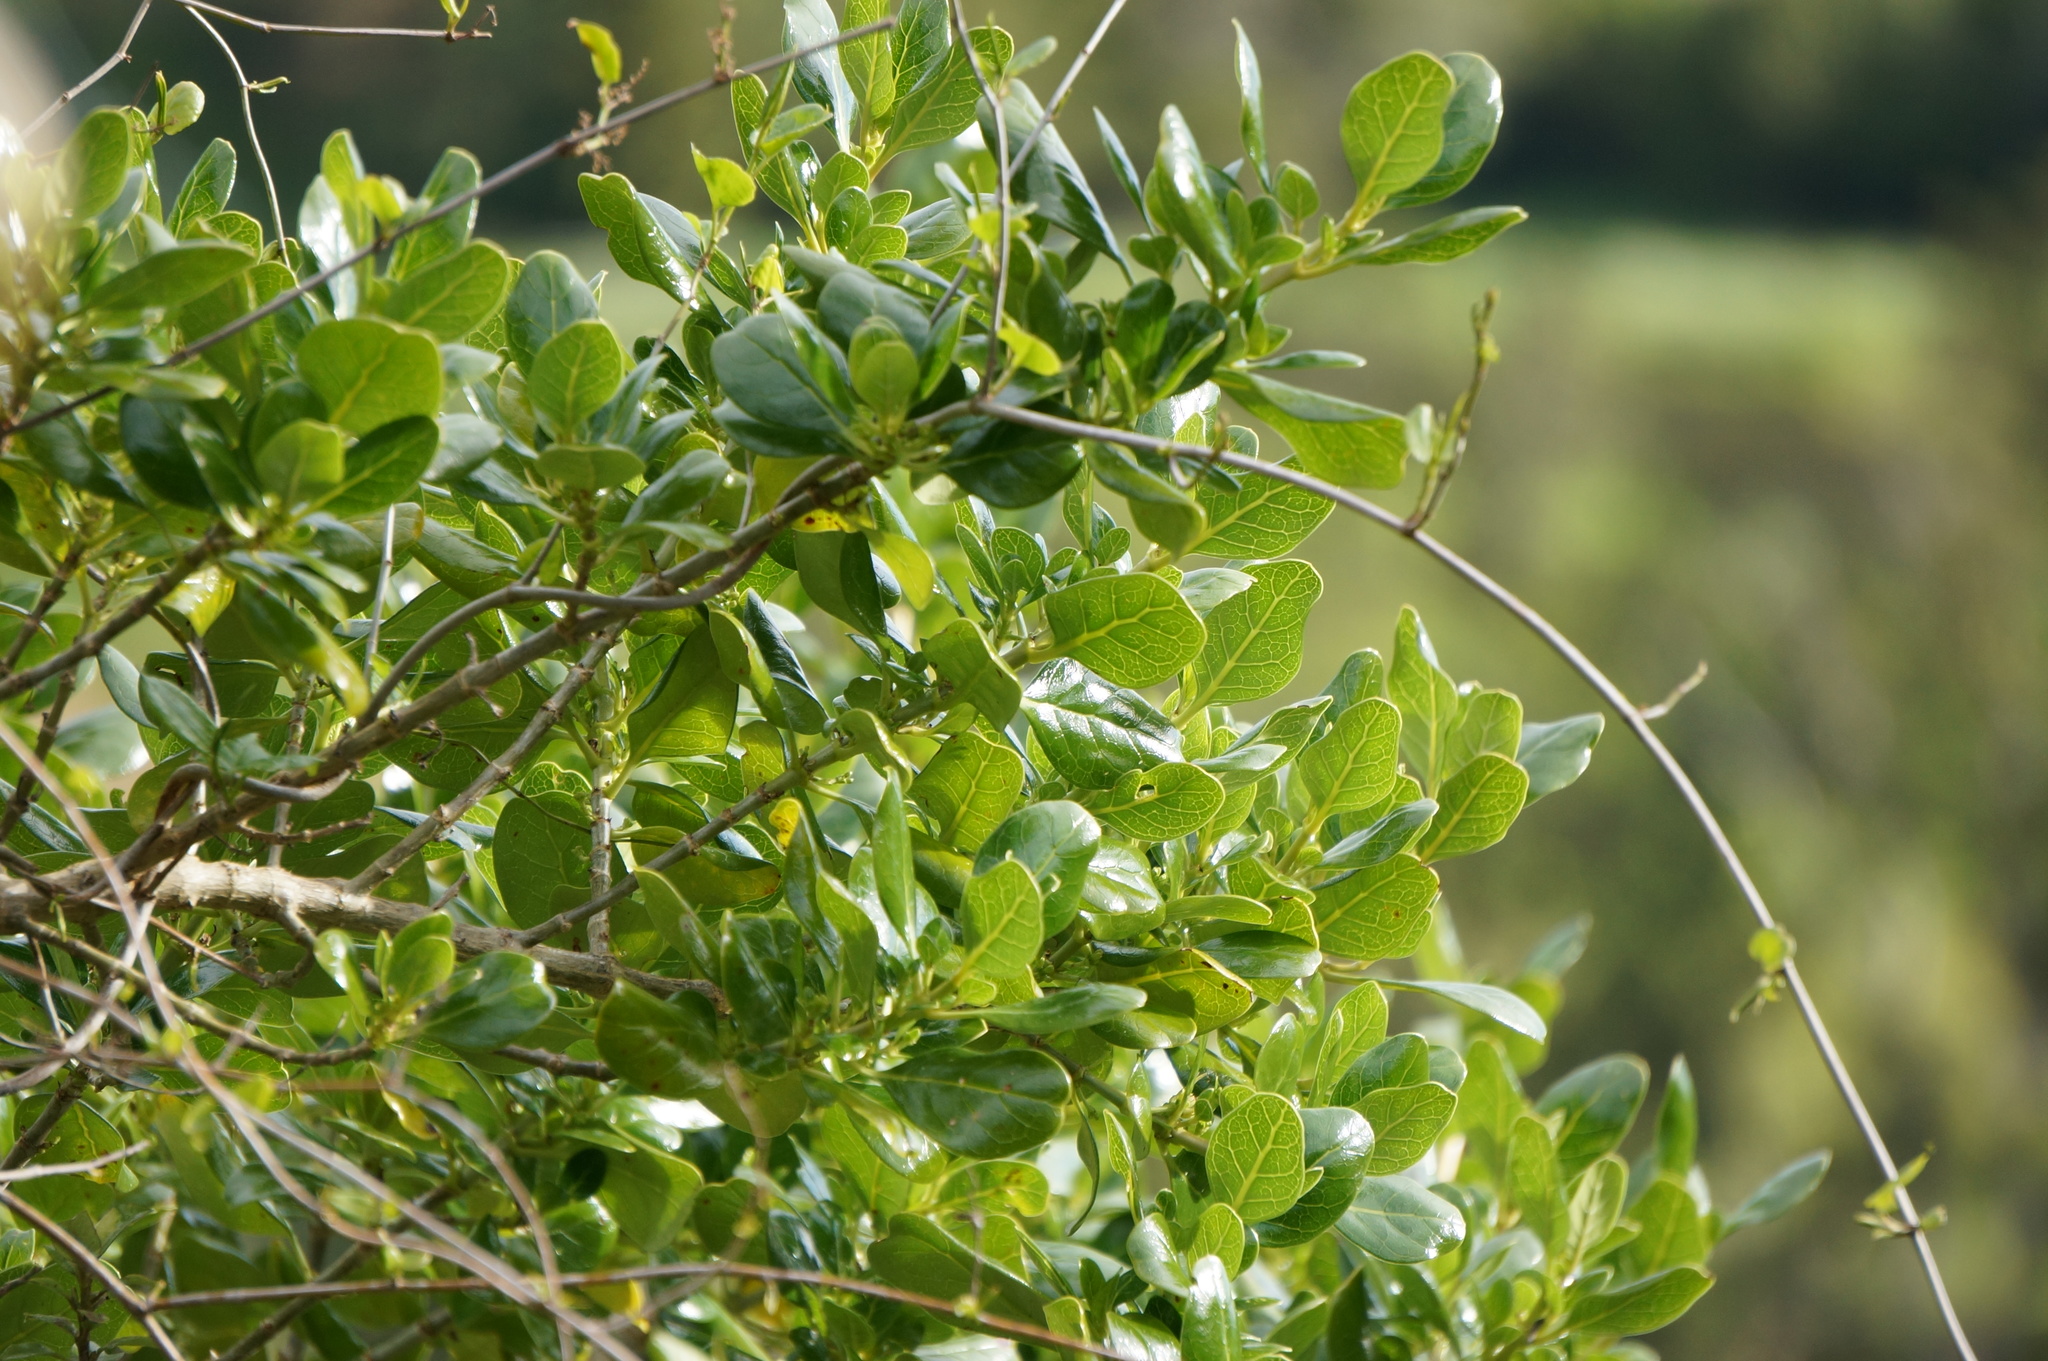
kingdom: Plantae
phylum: Tracheophyta
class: Magnoliopsida
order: Gentianales
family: Rubiaceae
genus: Coprosma
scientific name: Coprosma repens
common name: Tree bedstraw
